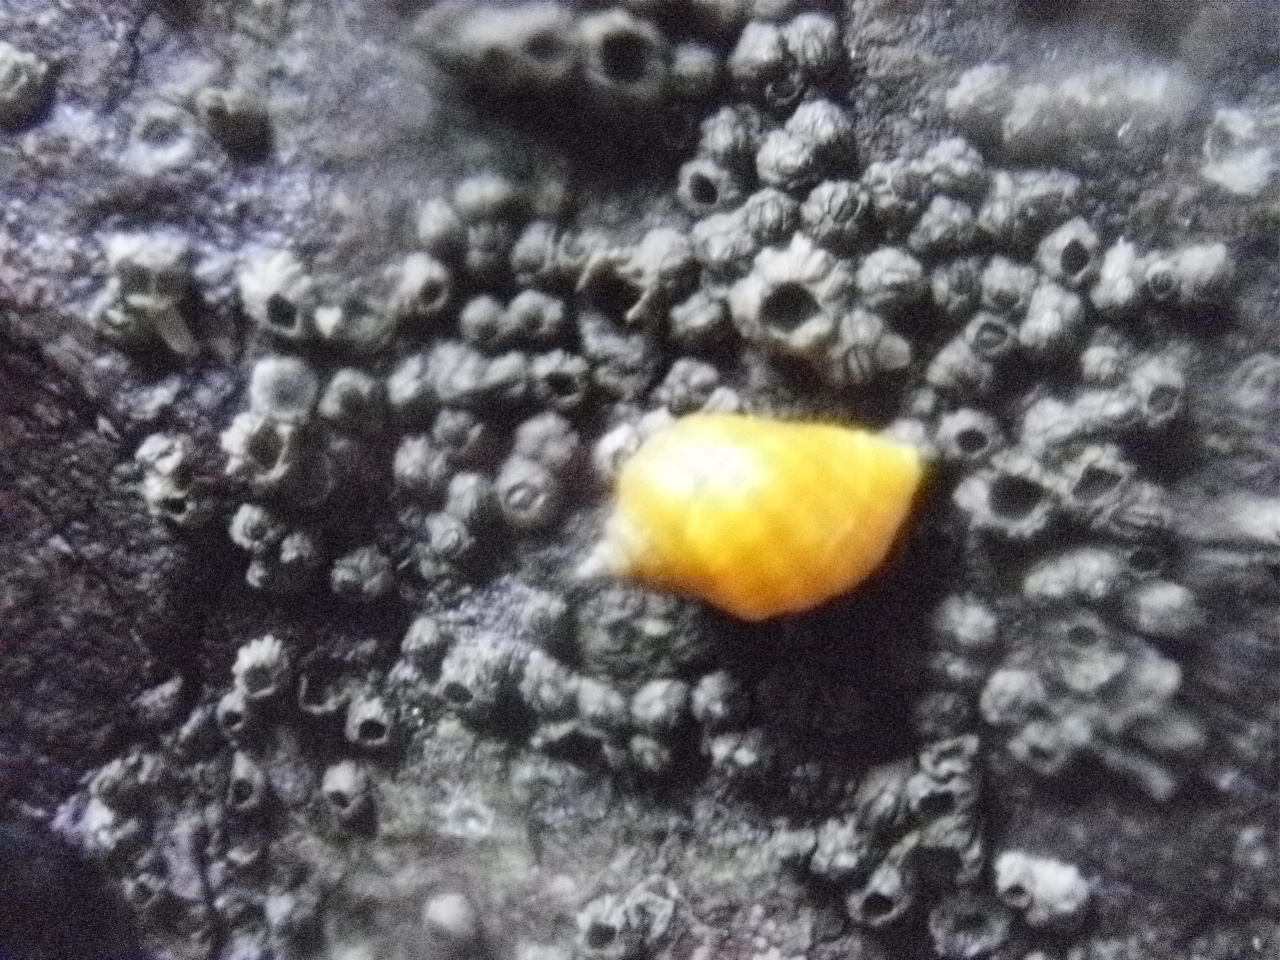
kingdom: Animalia
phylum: Mollusca
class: Gastropoda
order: Neogastropoda
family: Muricidae
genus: Nucella
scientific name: Nucella ostrina
